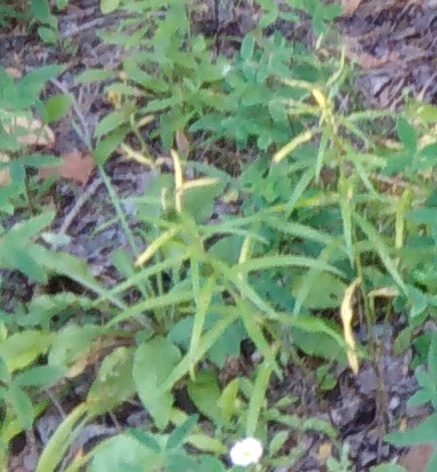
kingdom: Plantae
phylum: Tracheophyta
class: Magnoliopsida
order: Caryophyllales
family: Caryophyllaceae
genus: Rabelera
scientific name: Rabelera holostea
